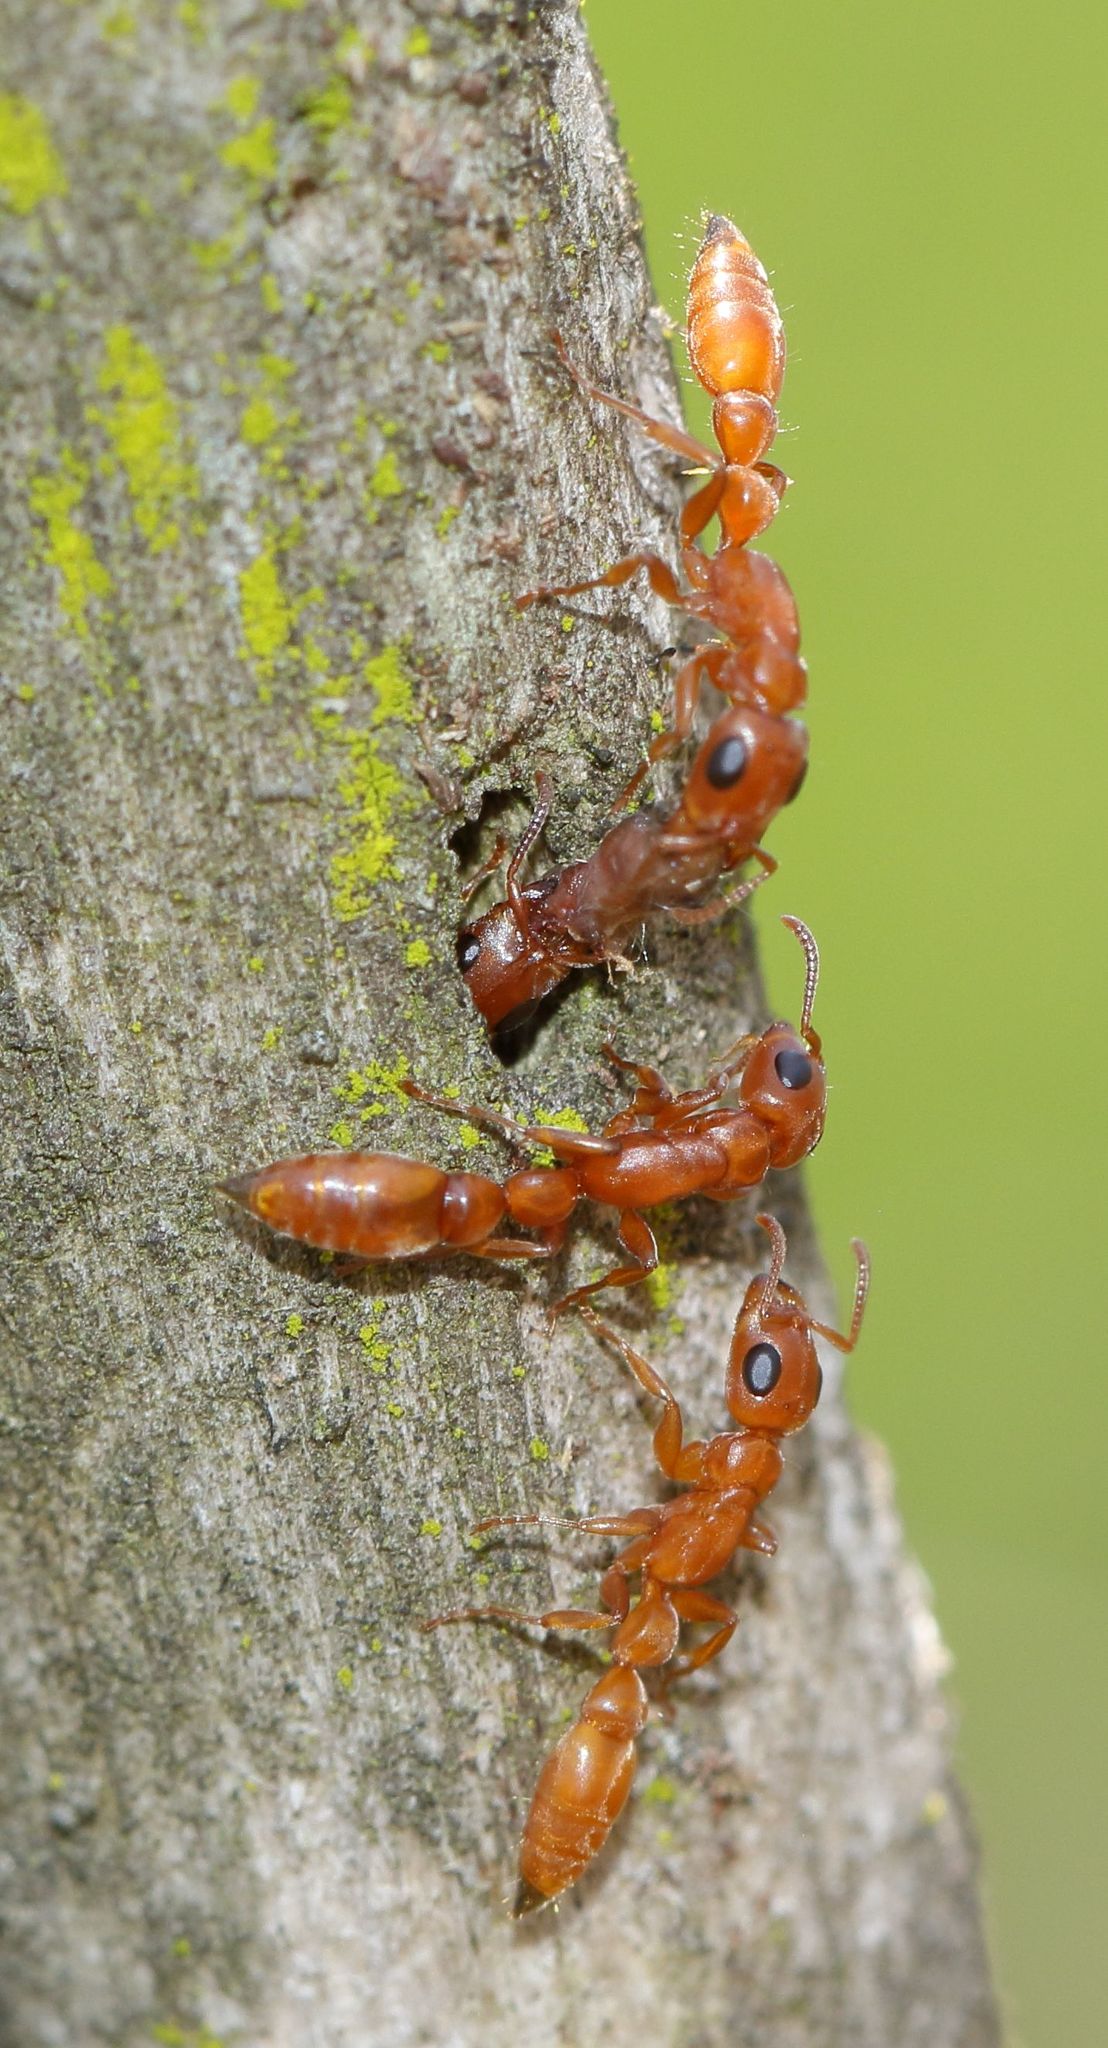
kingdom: Animalia
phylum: Arthropoda
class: Insecta
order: Hymenoptera
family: Formicidae
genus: Tetraponera
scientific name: Tetraponera natalensis
